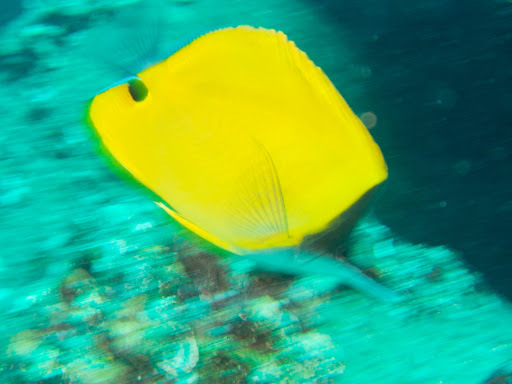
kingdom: Animalia
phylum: Chordata
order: Perciformes
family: Chaetodontidae
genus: Forcipiger
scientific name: Forcipiger longirostris
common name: Longnose butterflyfish
